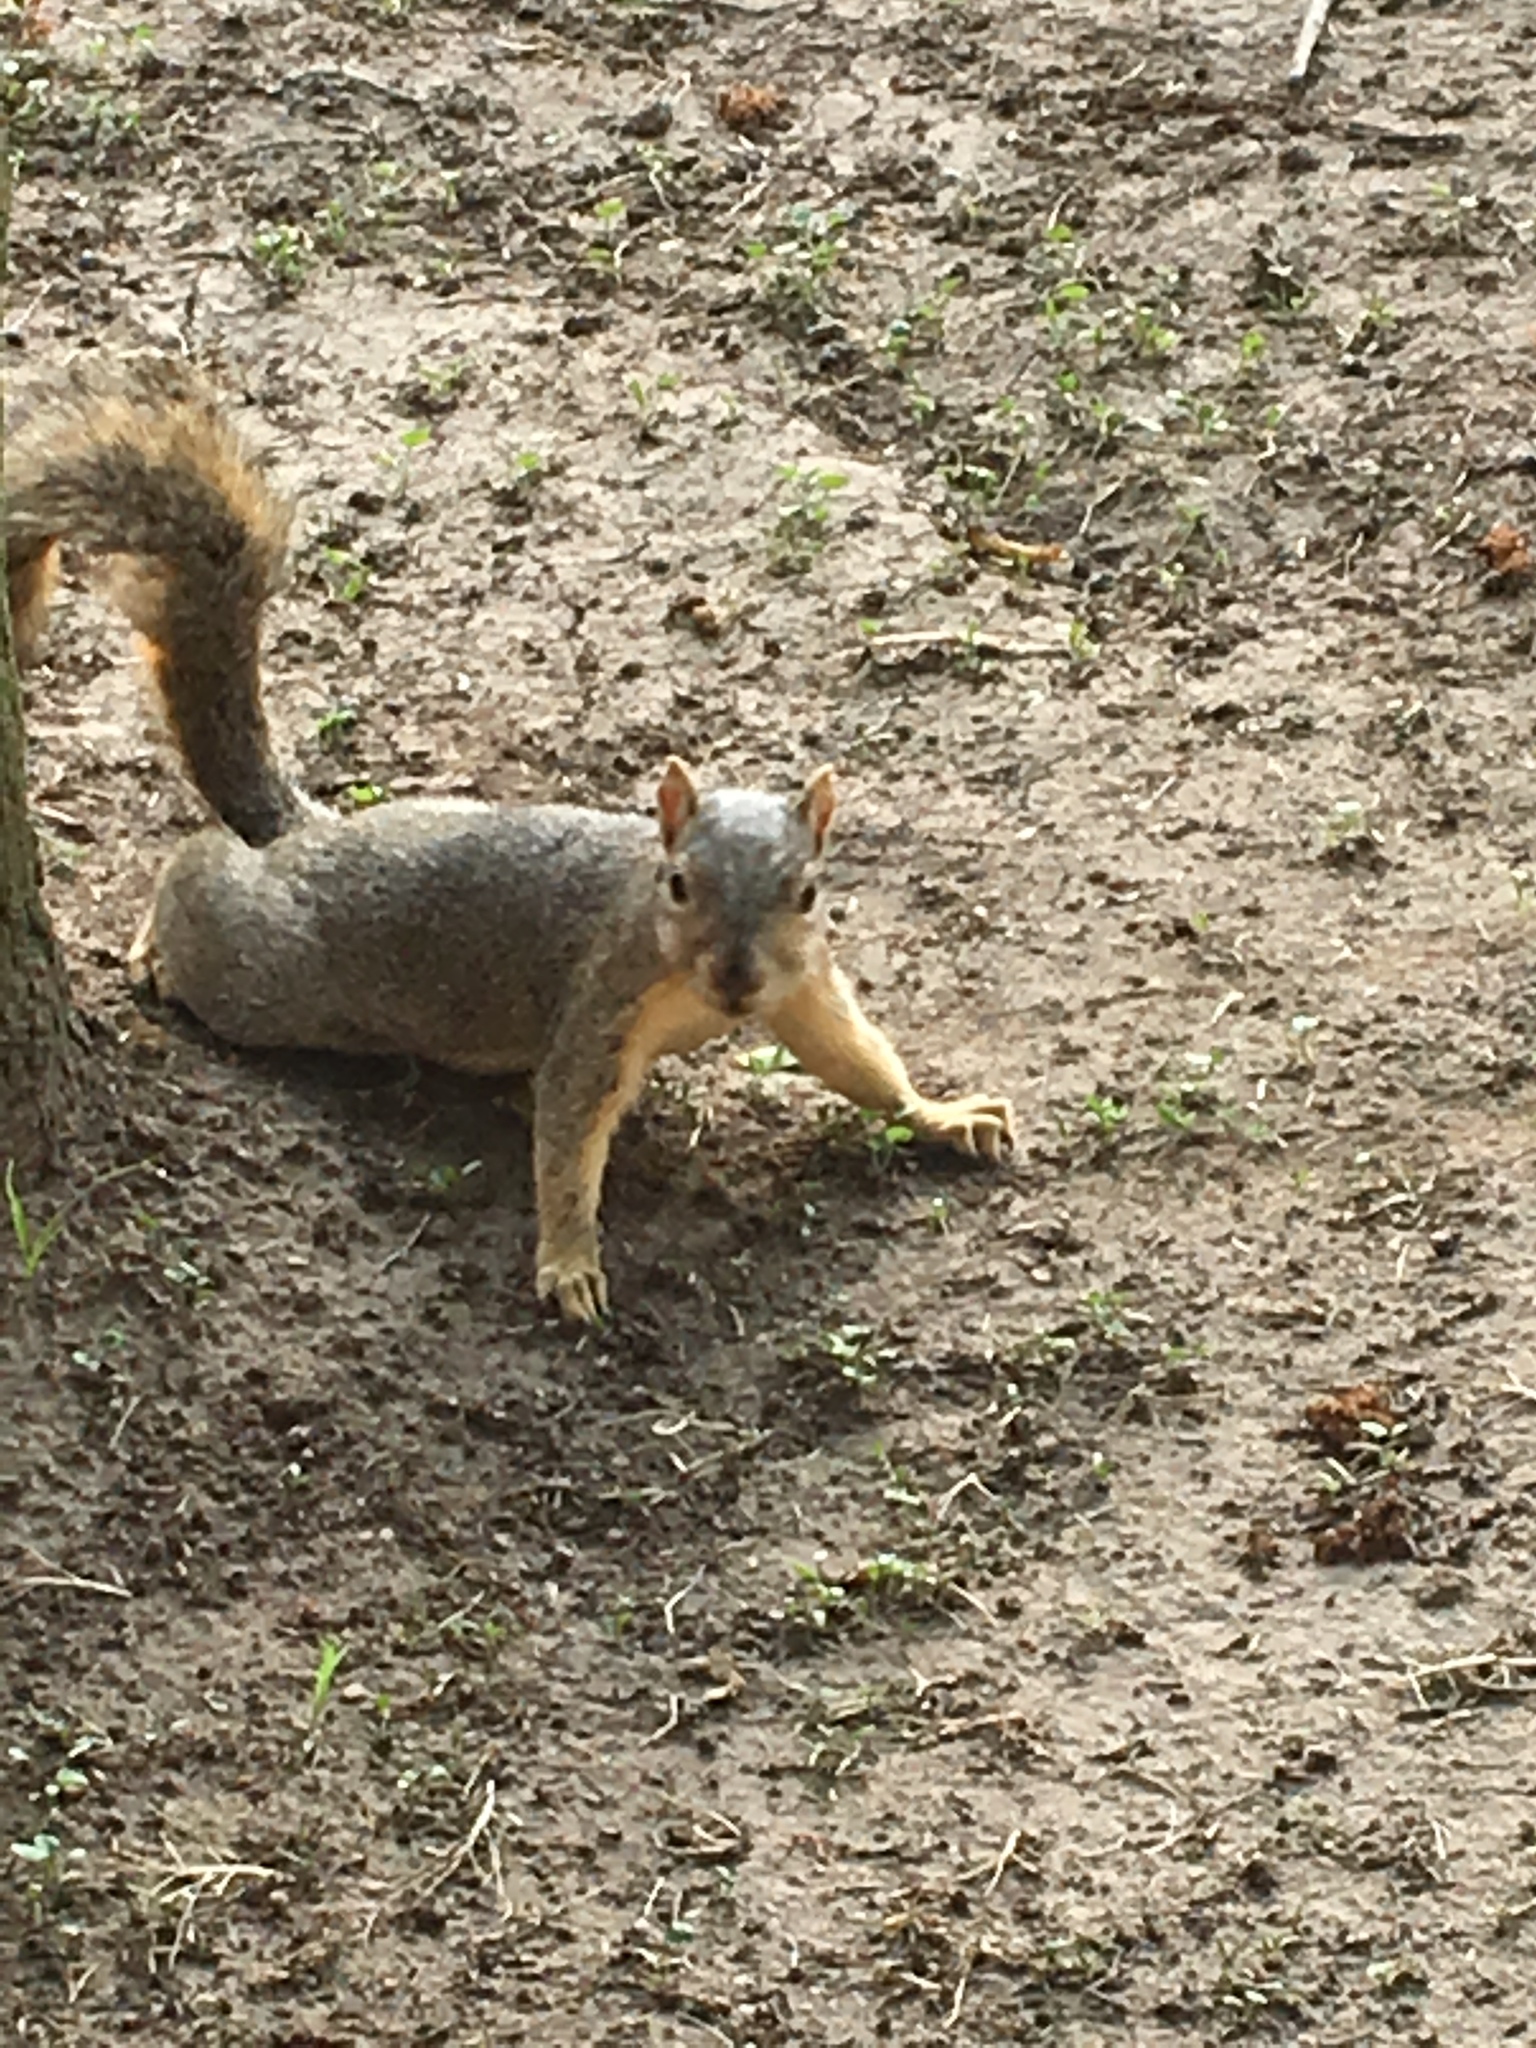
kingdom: Animalia
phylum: Chordata
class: Mammalia
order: Rodentia
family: Sciuridae
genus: Sciurus
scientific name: Sciurus niger
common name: Fox squirrel
